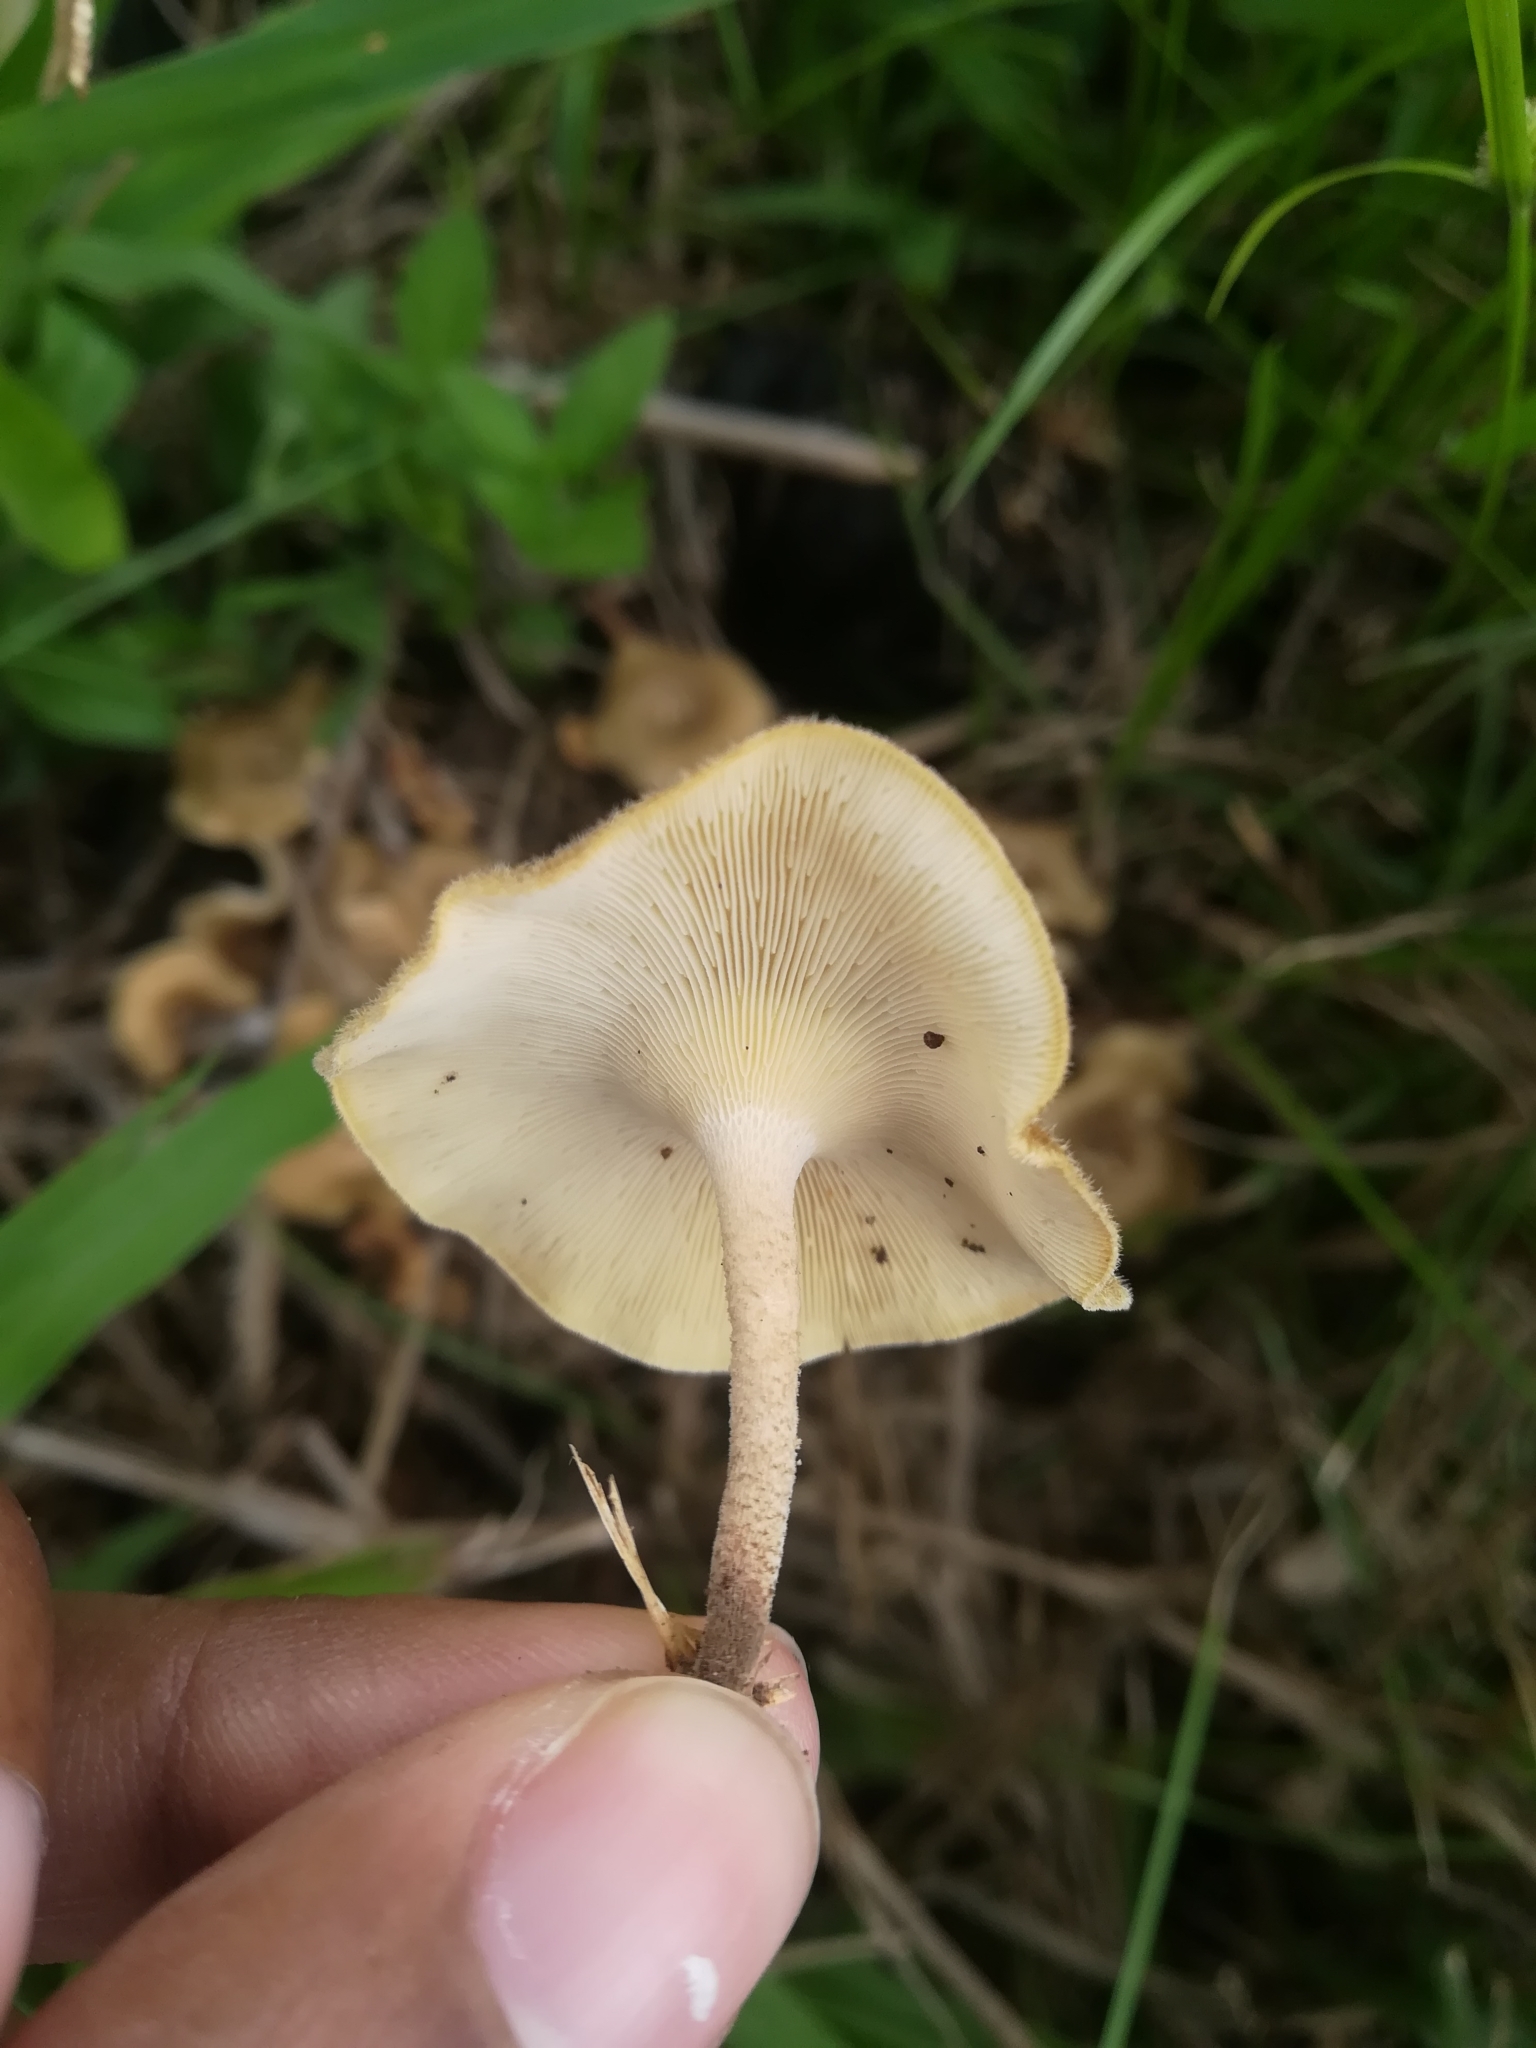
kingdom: Fungi
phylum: Basidiomycota
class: Agaricomycetes
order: Polyporales
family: Polyporaceae
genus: Lentinus
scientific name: Lentinus crinitus
